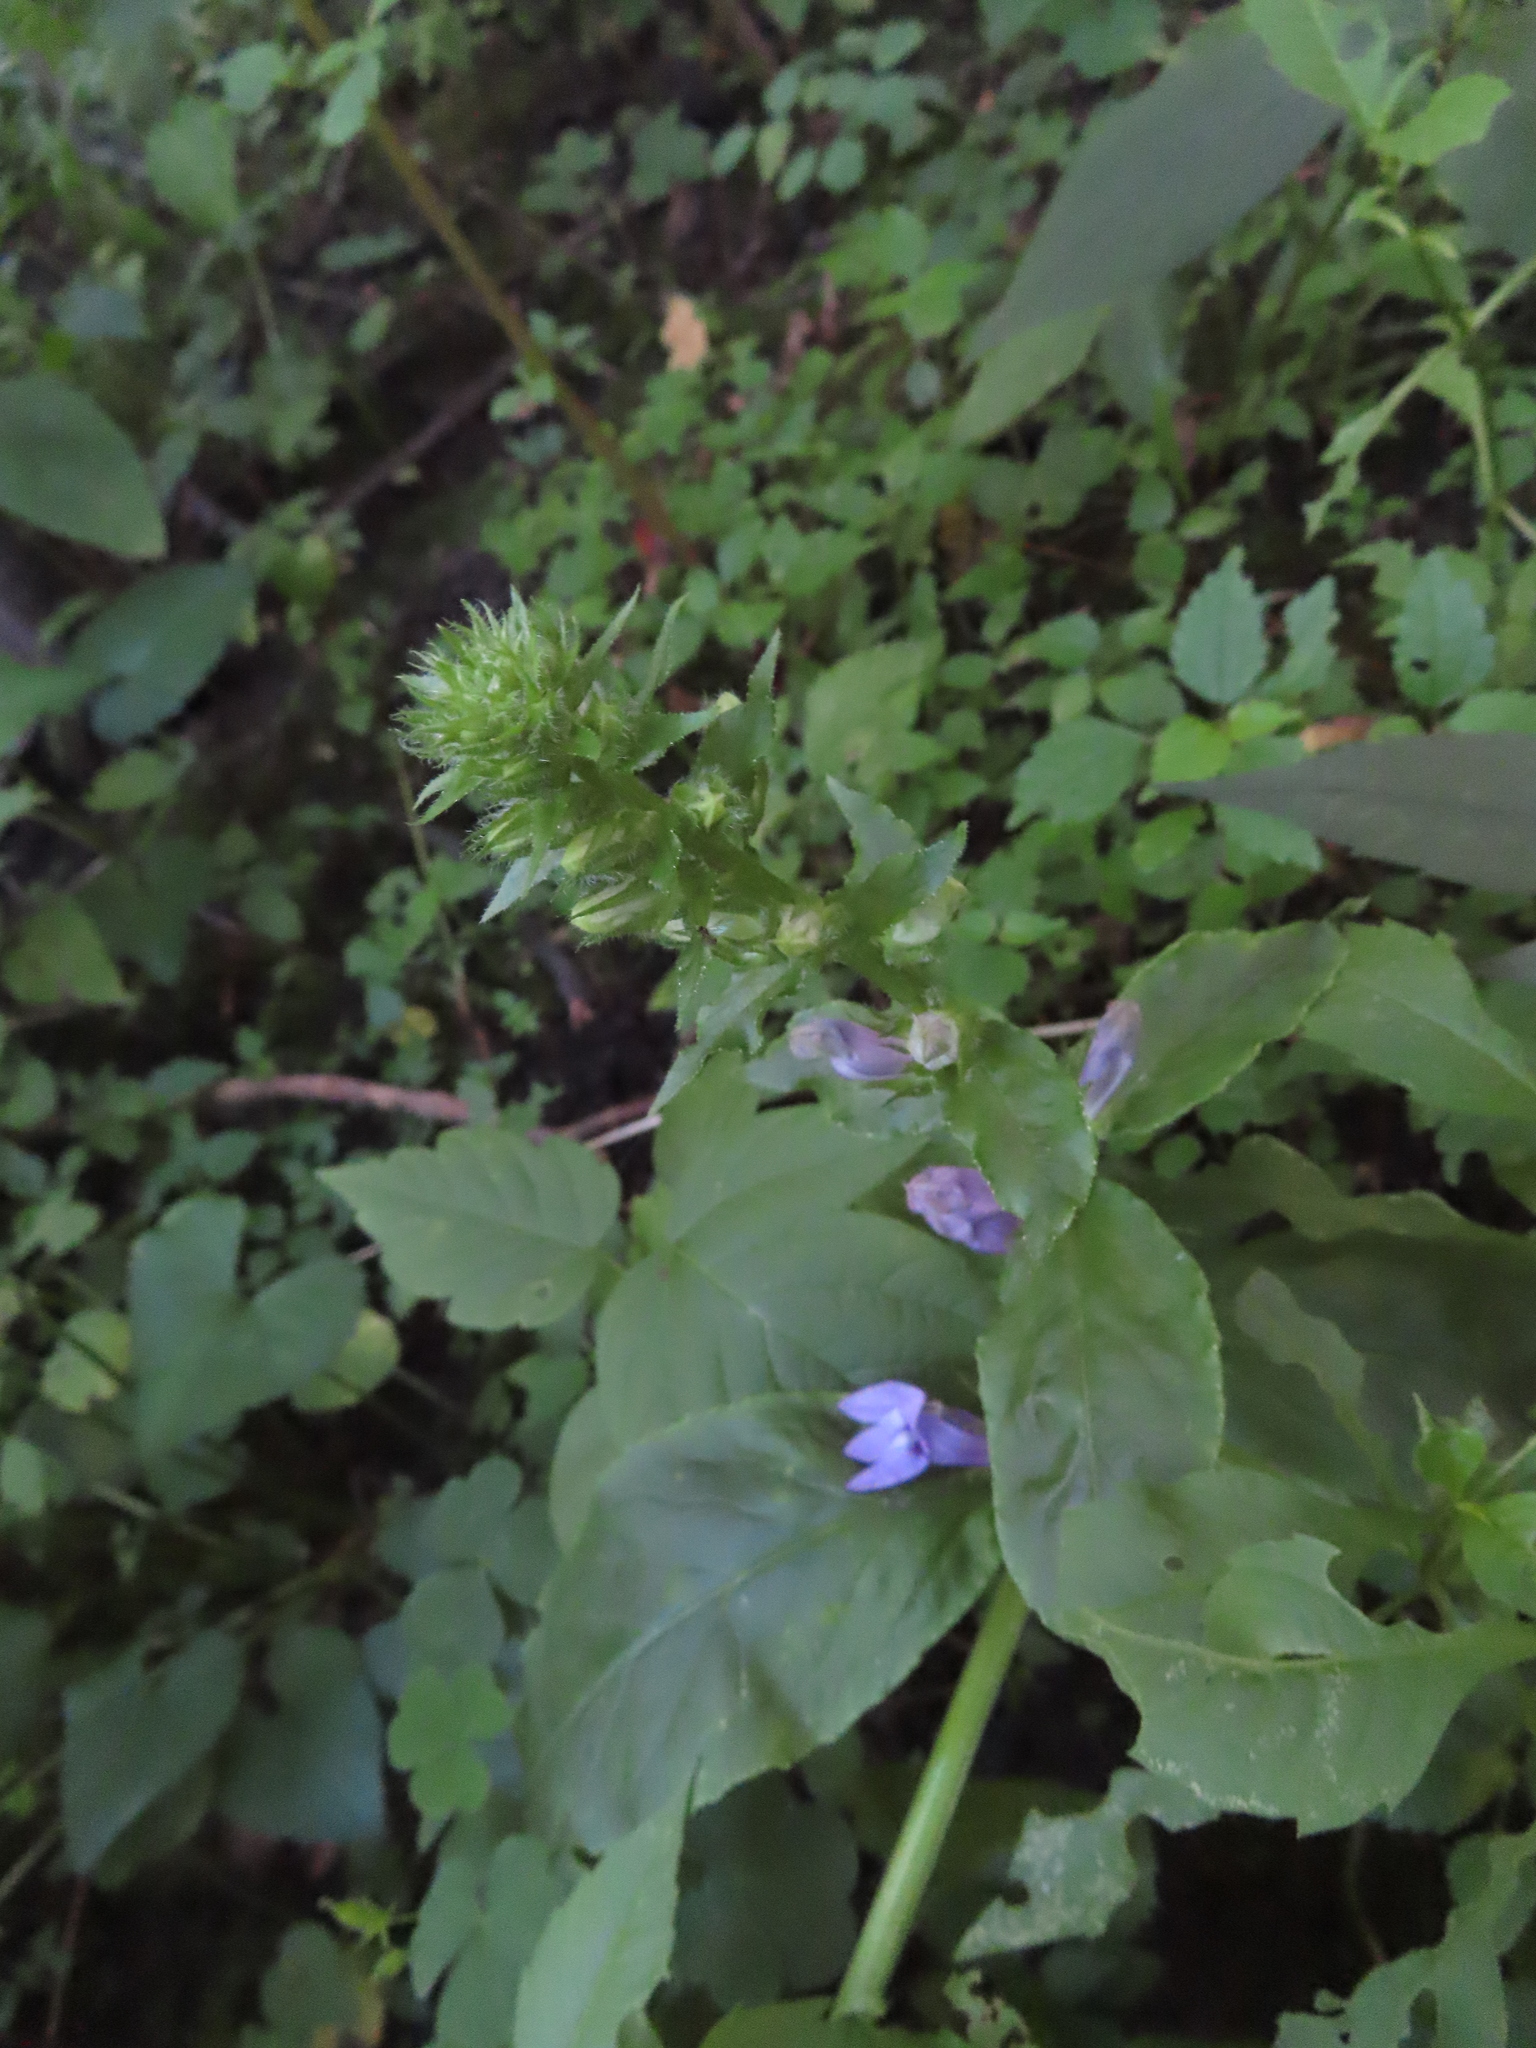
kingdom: Plantae
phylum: Tracheophyta
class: Magnoliopsida
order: Asterales
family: Campanulaceae
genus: Lobelia
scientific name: Lobelia siphilitica
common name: Great lobelia
